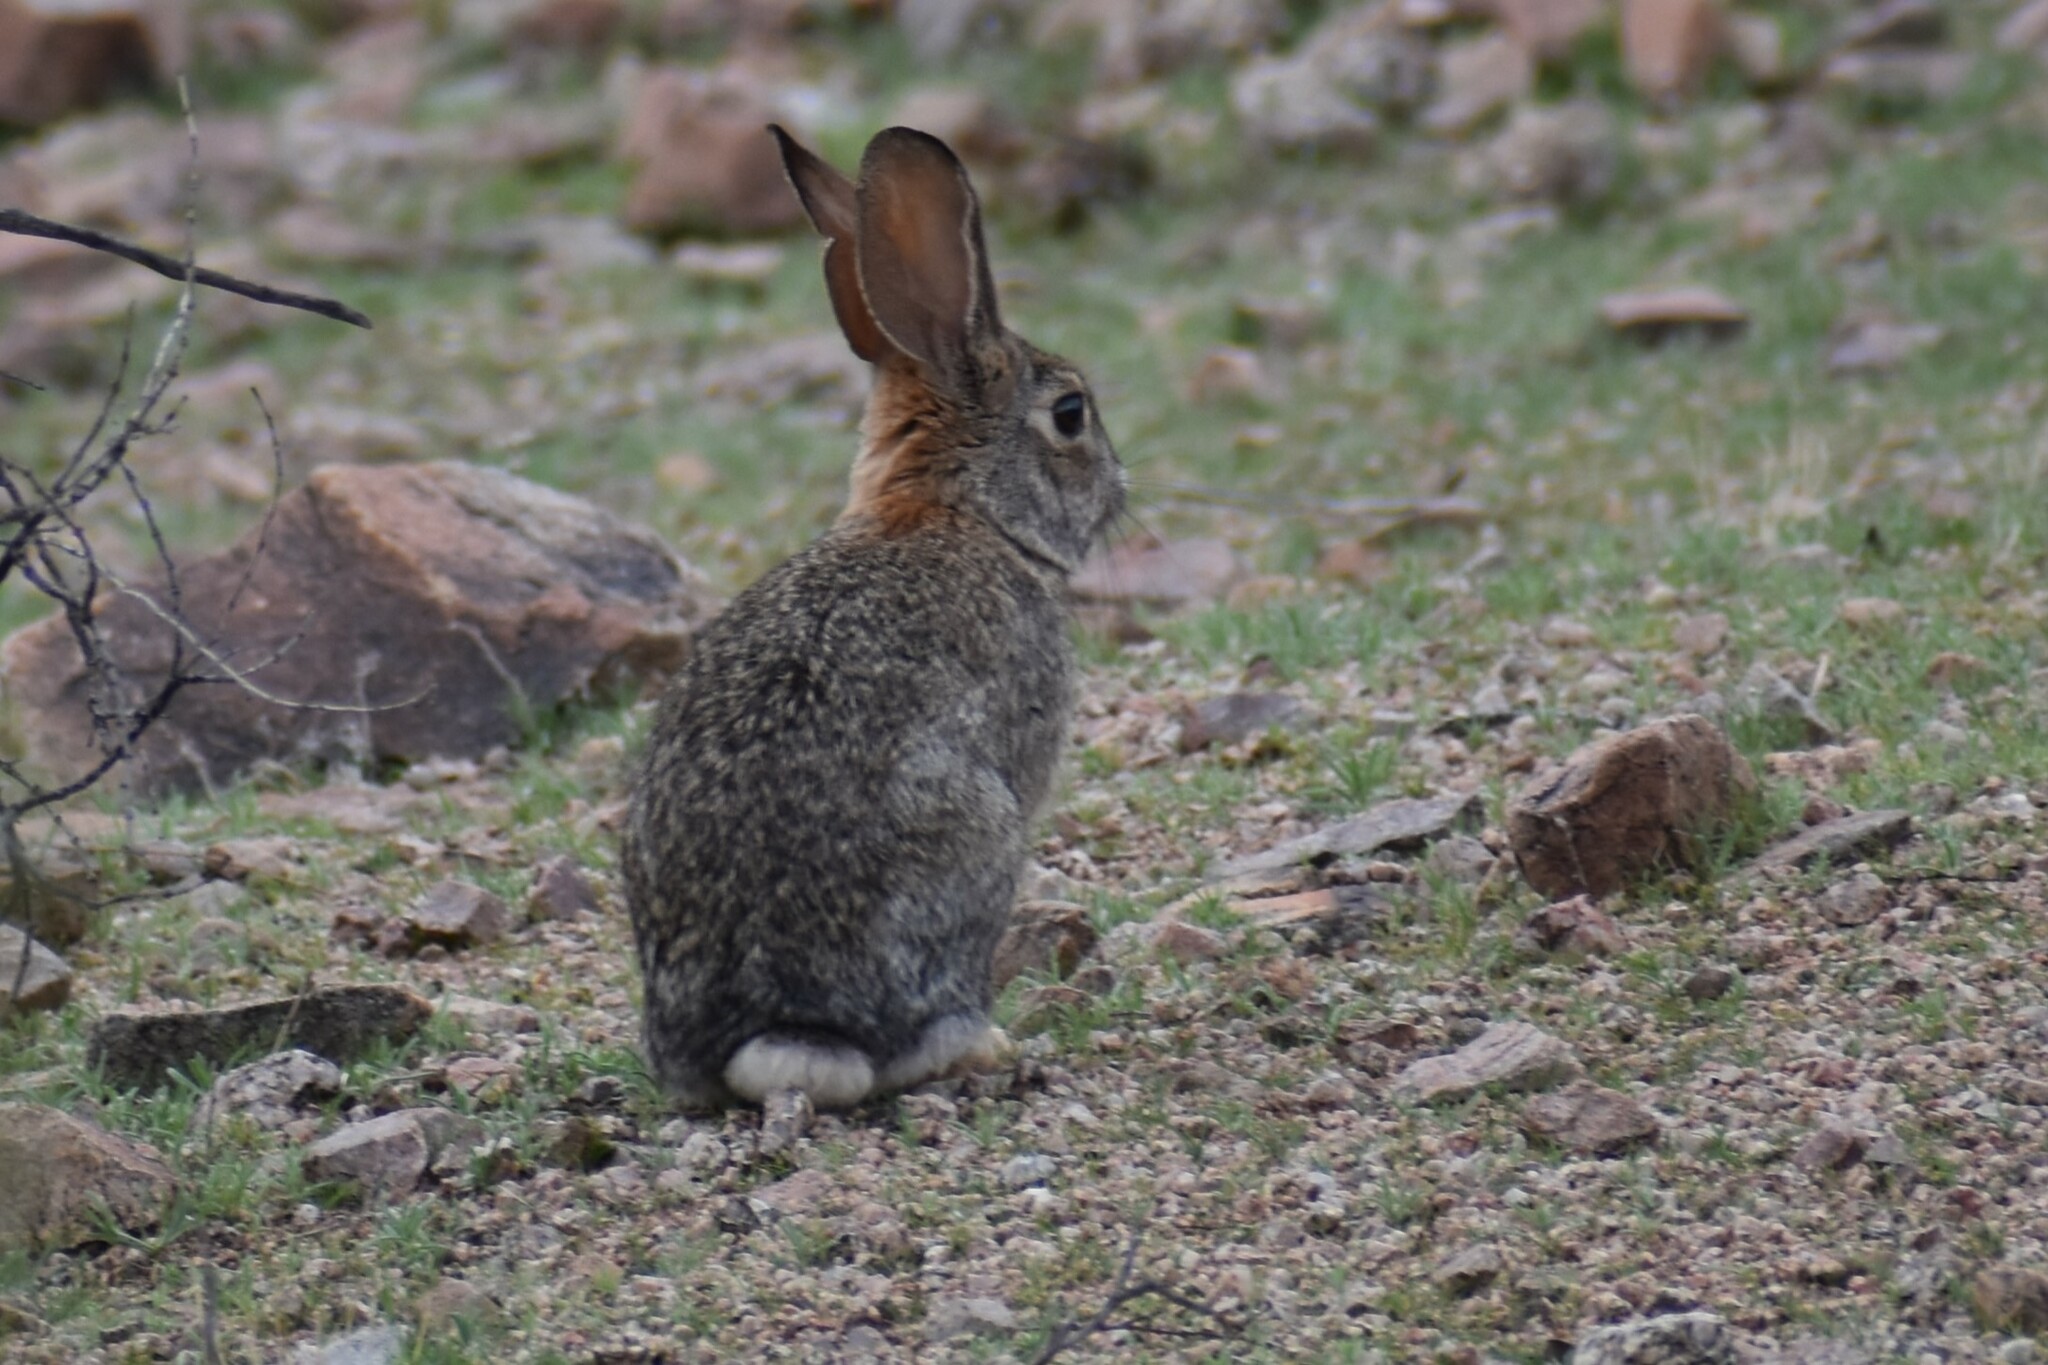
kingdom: Animalia
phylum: Chordata
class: Mammalia
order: Lagomorpha
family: Leporidae
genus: Sylvilagus
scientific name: Sylvilagus audubonii
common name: Desert cottontail
